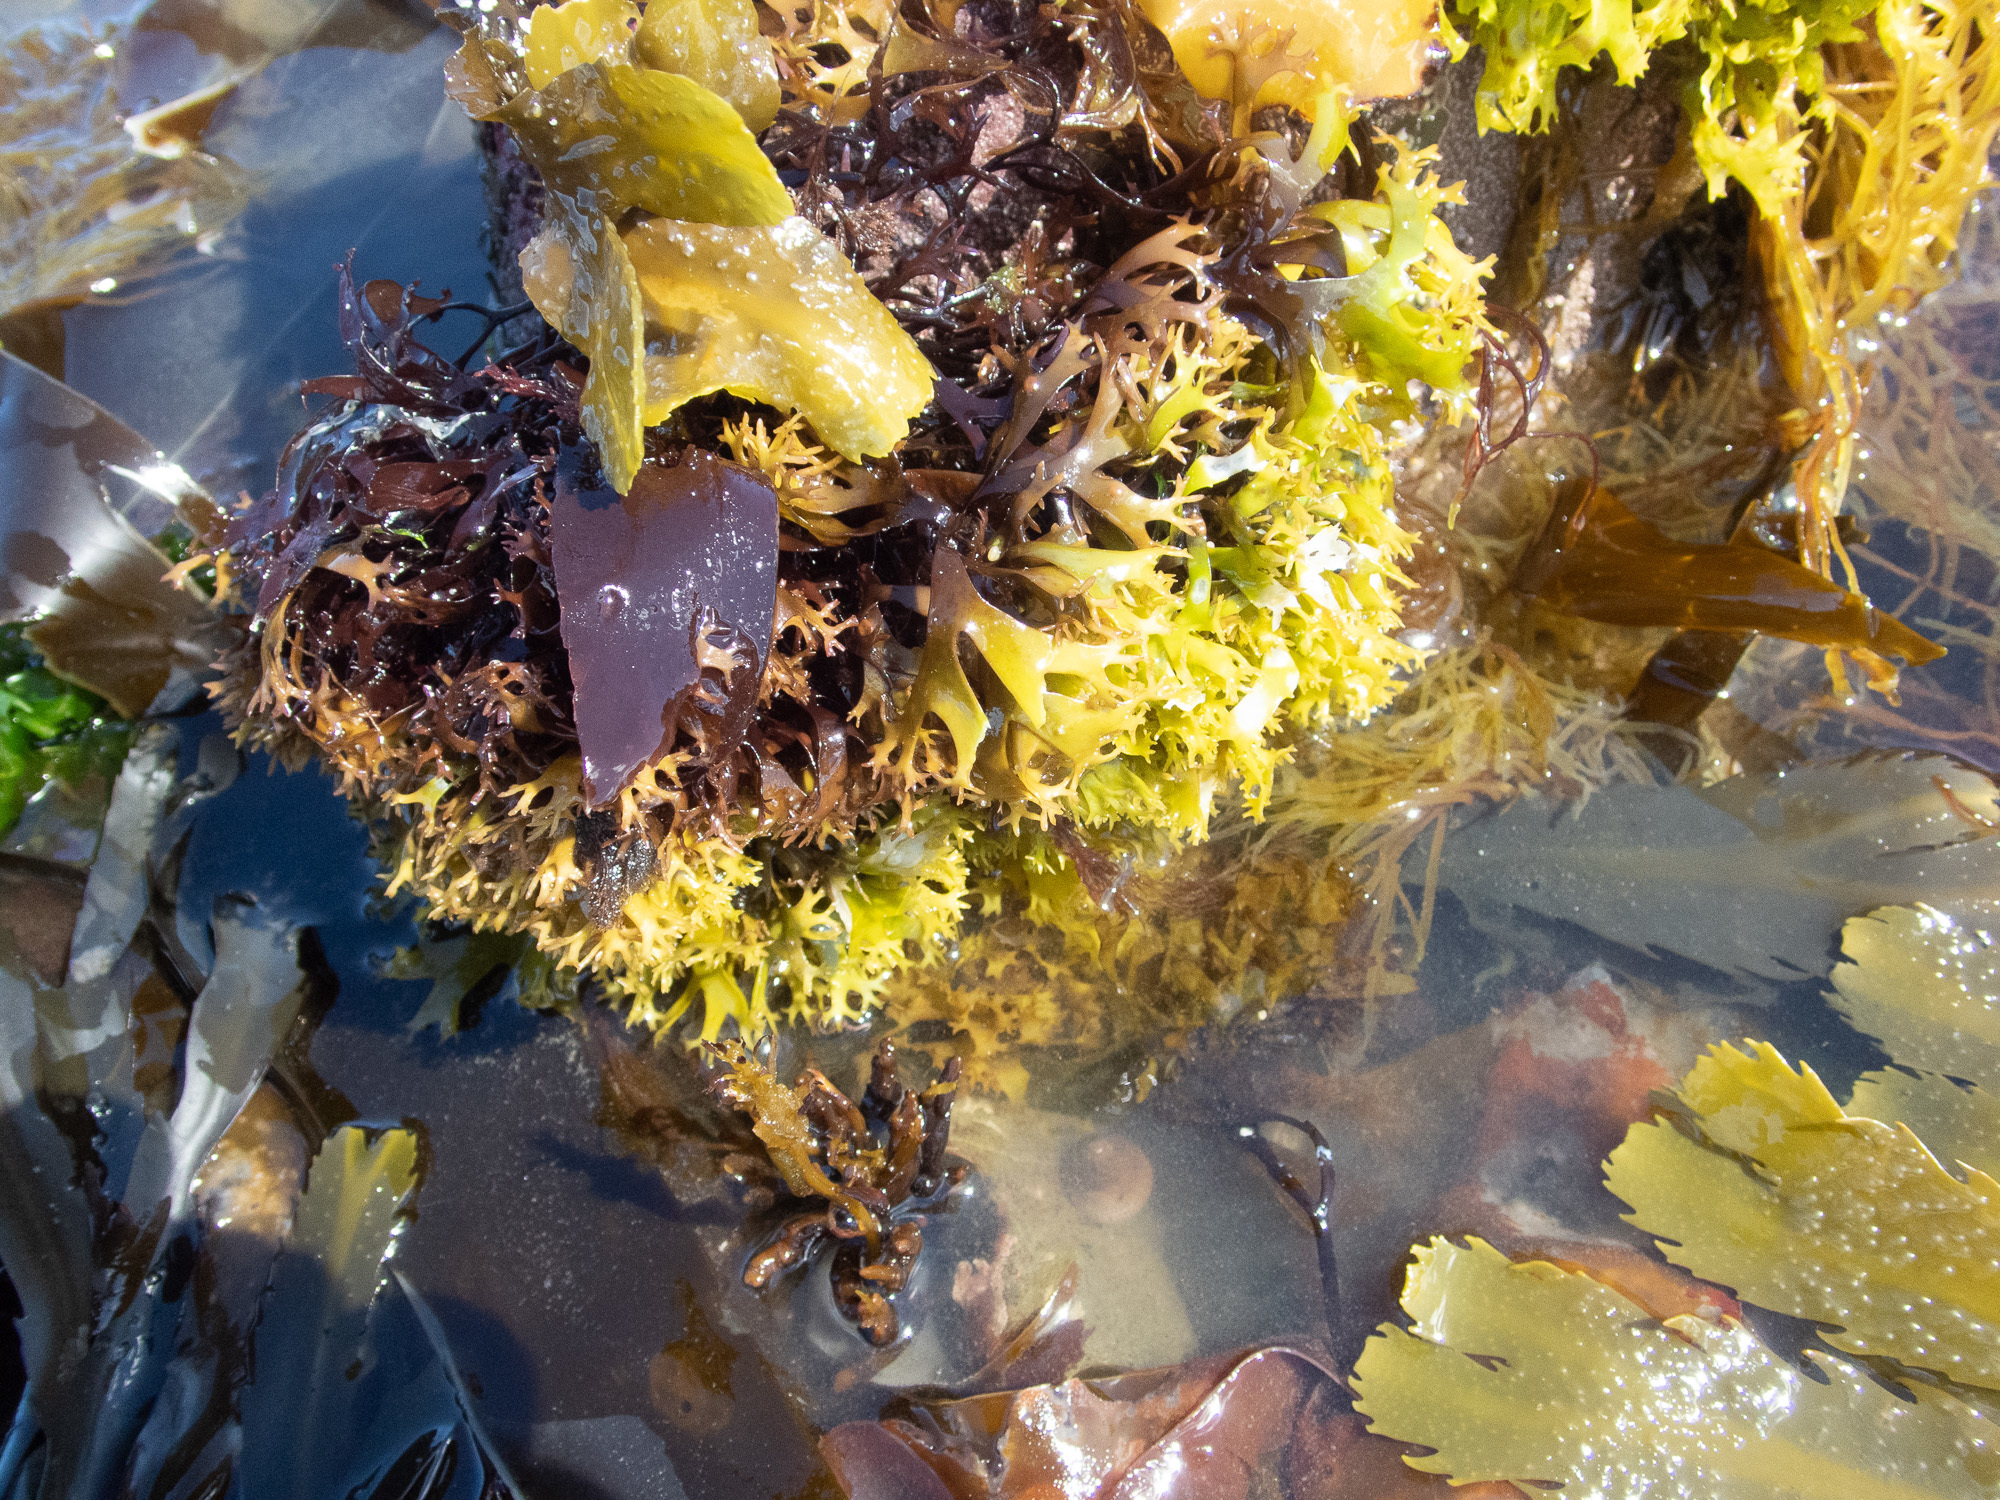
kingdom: Plantae
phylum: Rhodophyta
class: Florideophyceae
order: Gigartinales
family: Phyllophoraceae
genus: Mastocarpus
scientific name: Mastocarpus stellatus
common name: False irish moss
